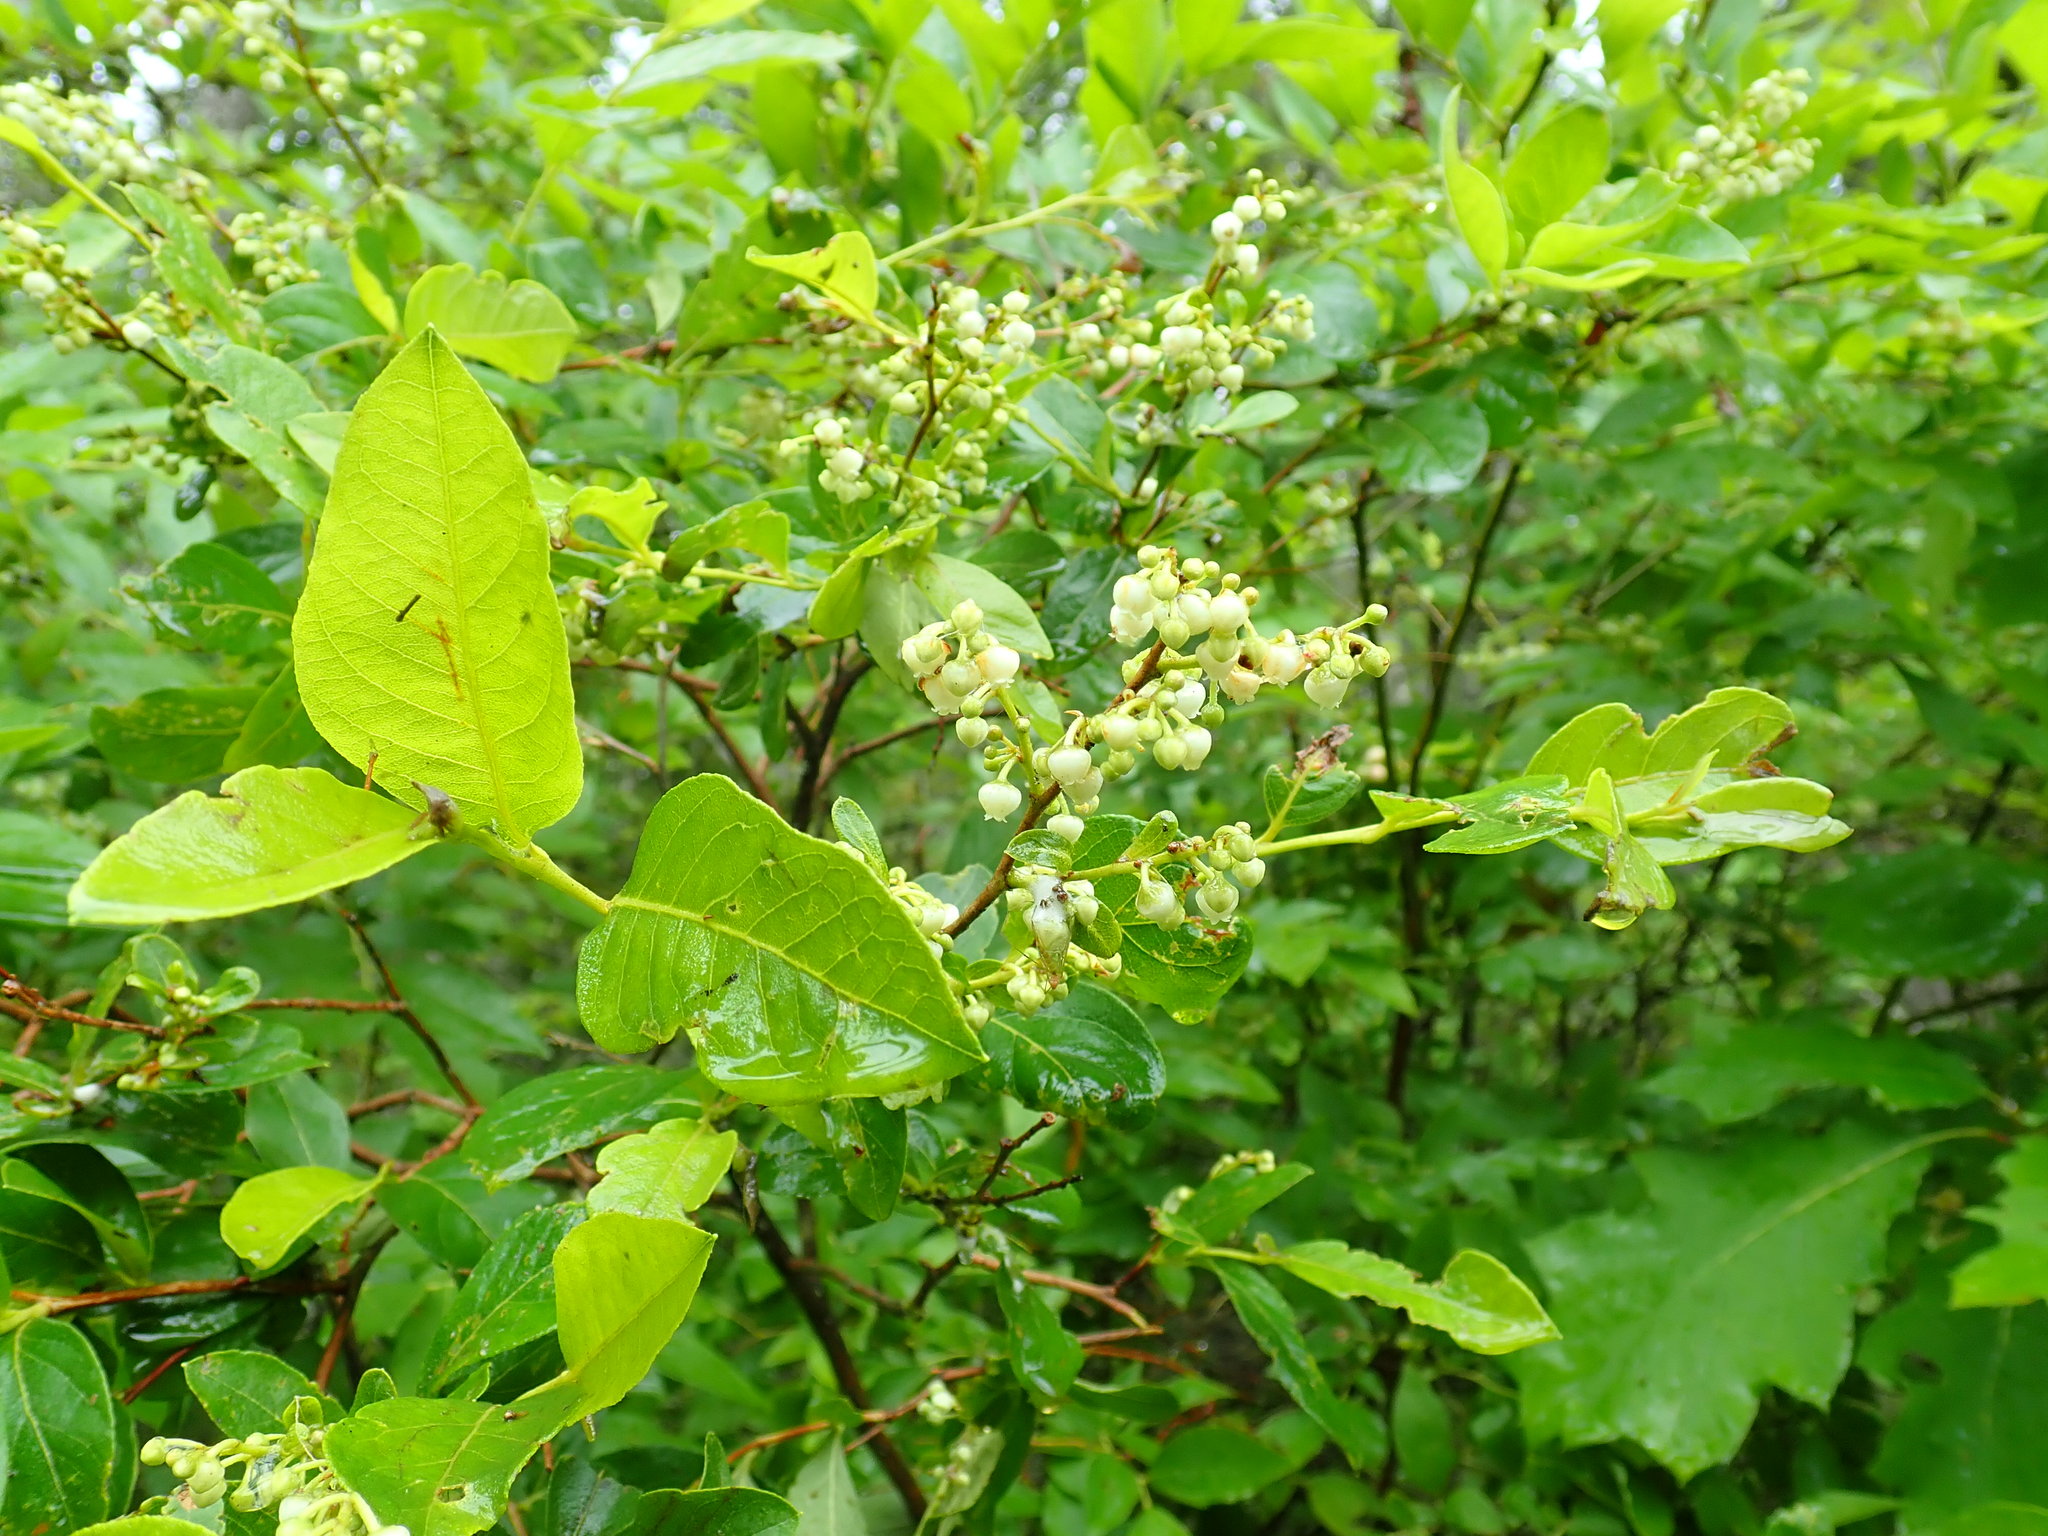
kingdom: Plantae
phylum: Tracheophyta
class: Magnoliopsida
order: Ericales
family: Ericaceae
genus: Lyonia
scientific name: Lyonia ligustrina
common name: Maleberry
